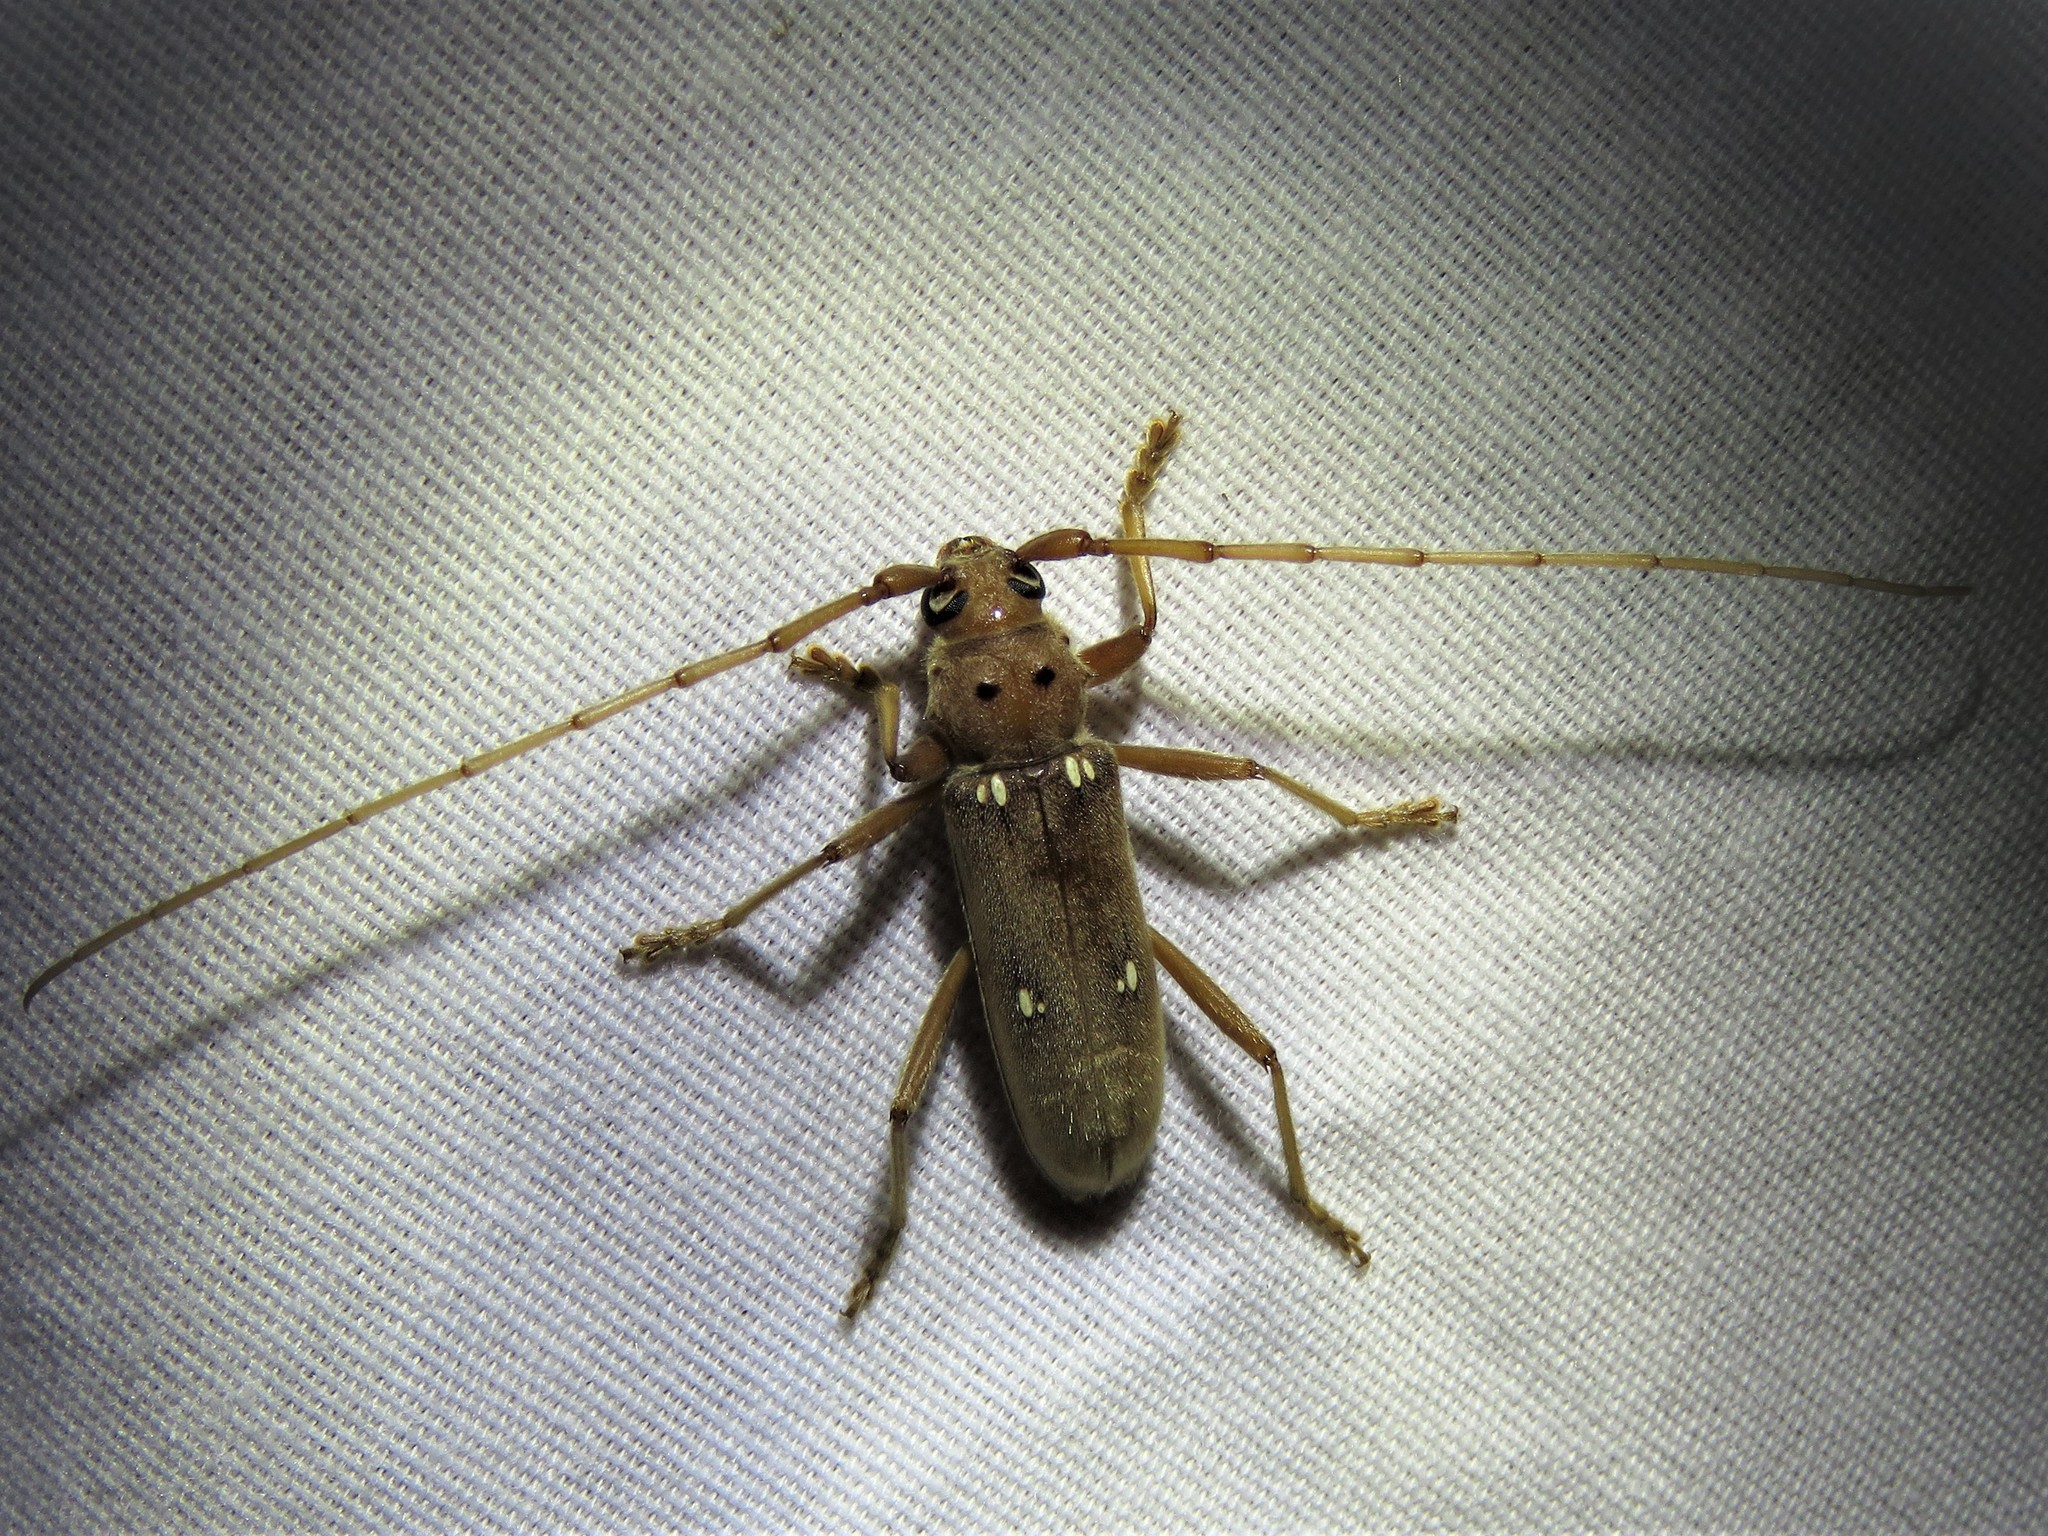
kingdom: Animalia
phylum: Arthropoda
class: Insecta
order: Coleoptera
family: Cerambycidae
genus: Eburia
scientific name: Eburia haldemani
